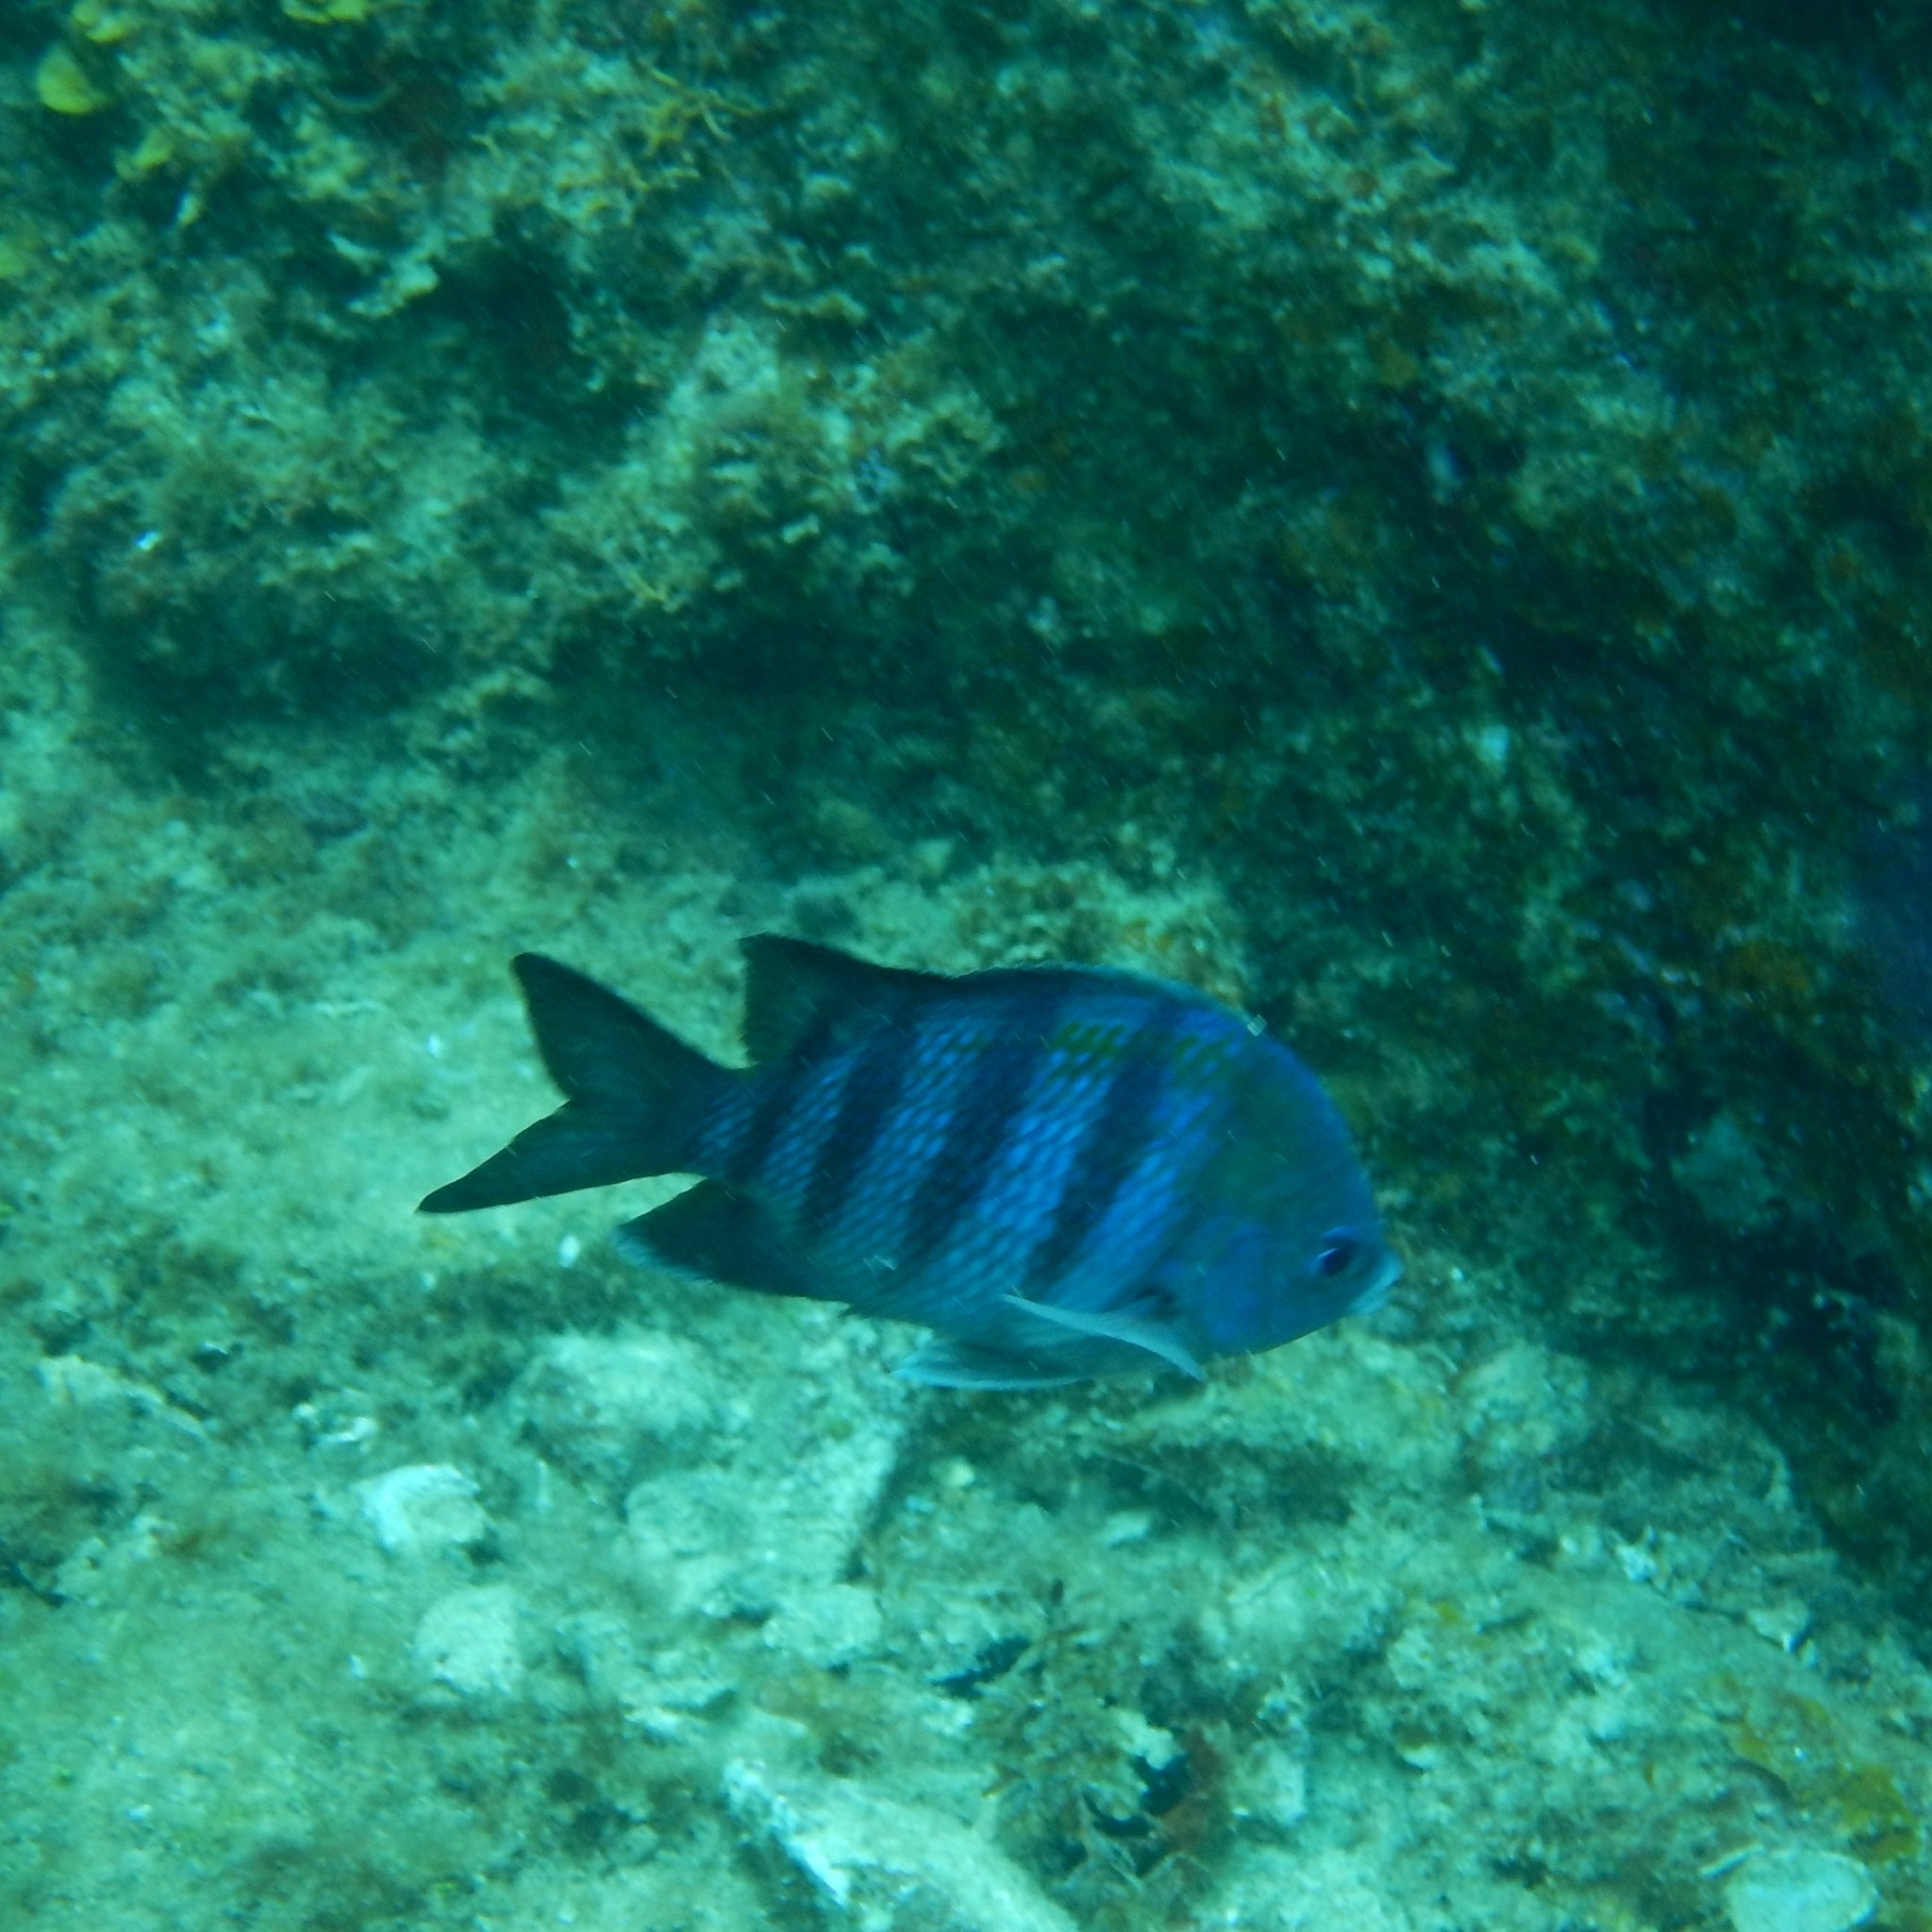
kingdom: Animalia
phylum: Chordata
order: Perciformes
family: Pomacentridae
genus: Abudefduf
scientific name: Abudefduf saxatilis
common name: Sergeant major
